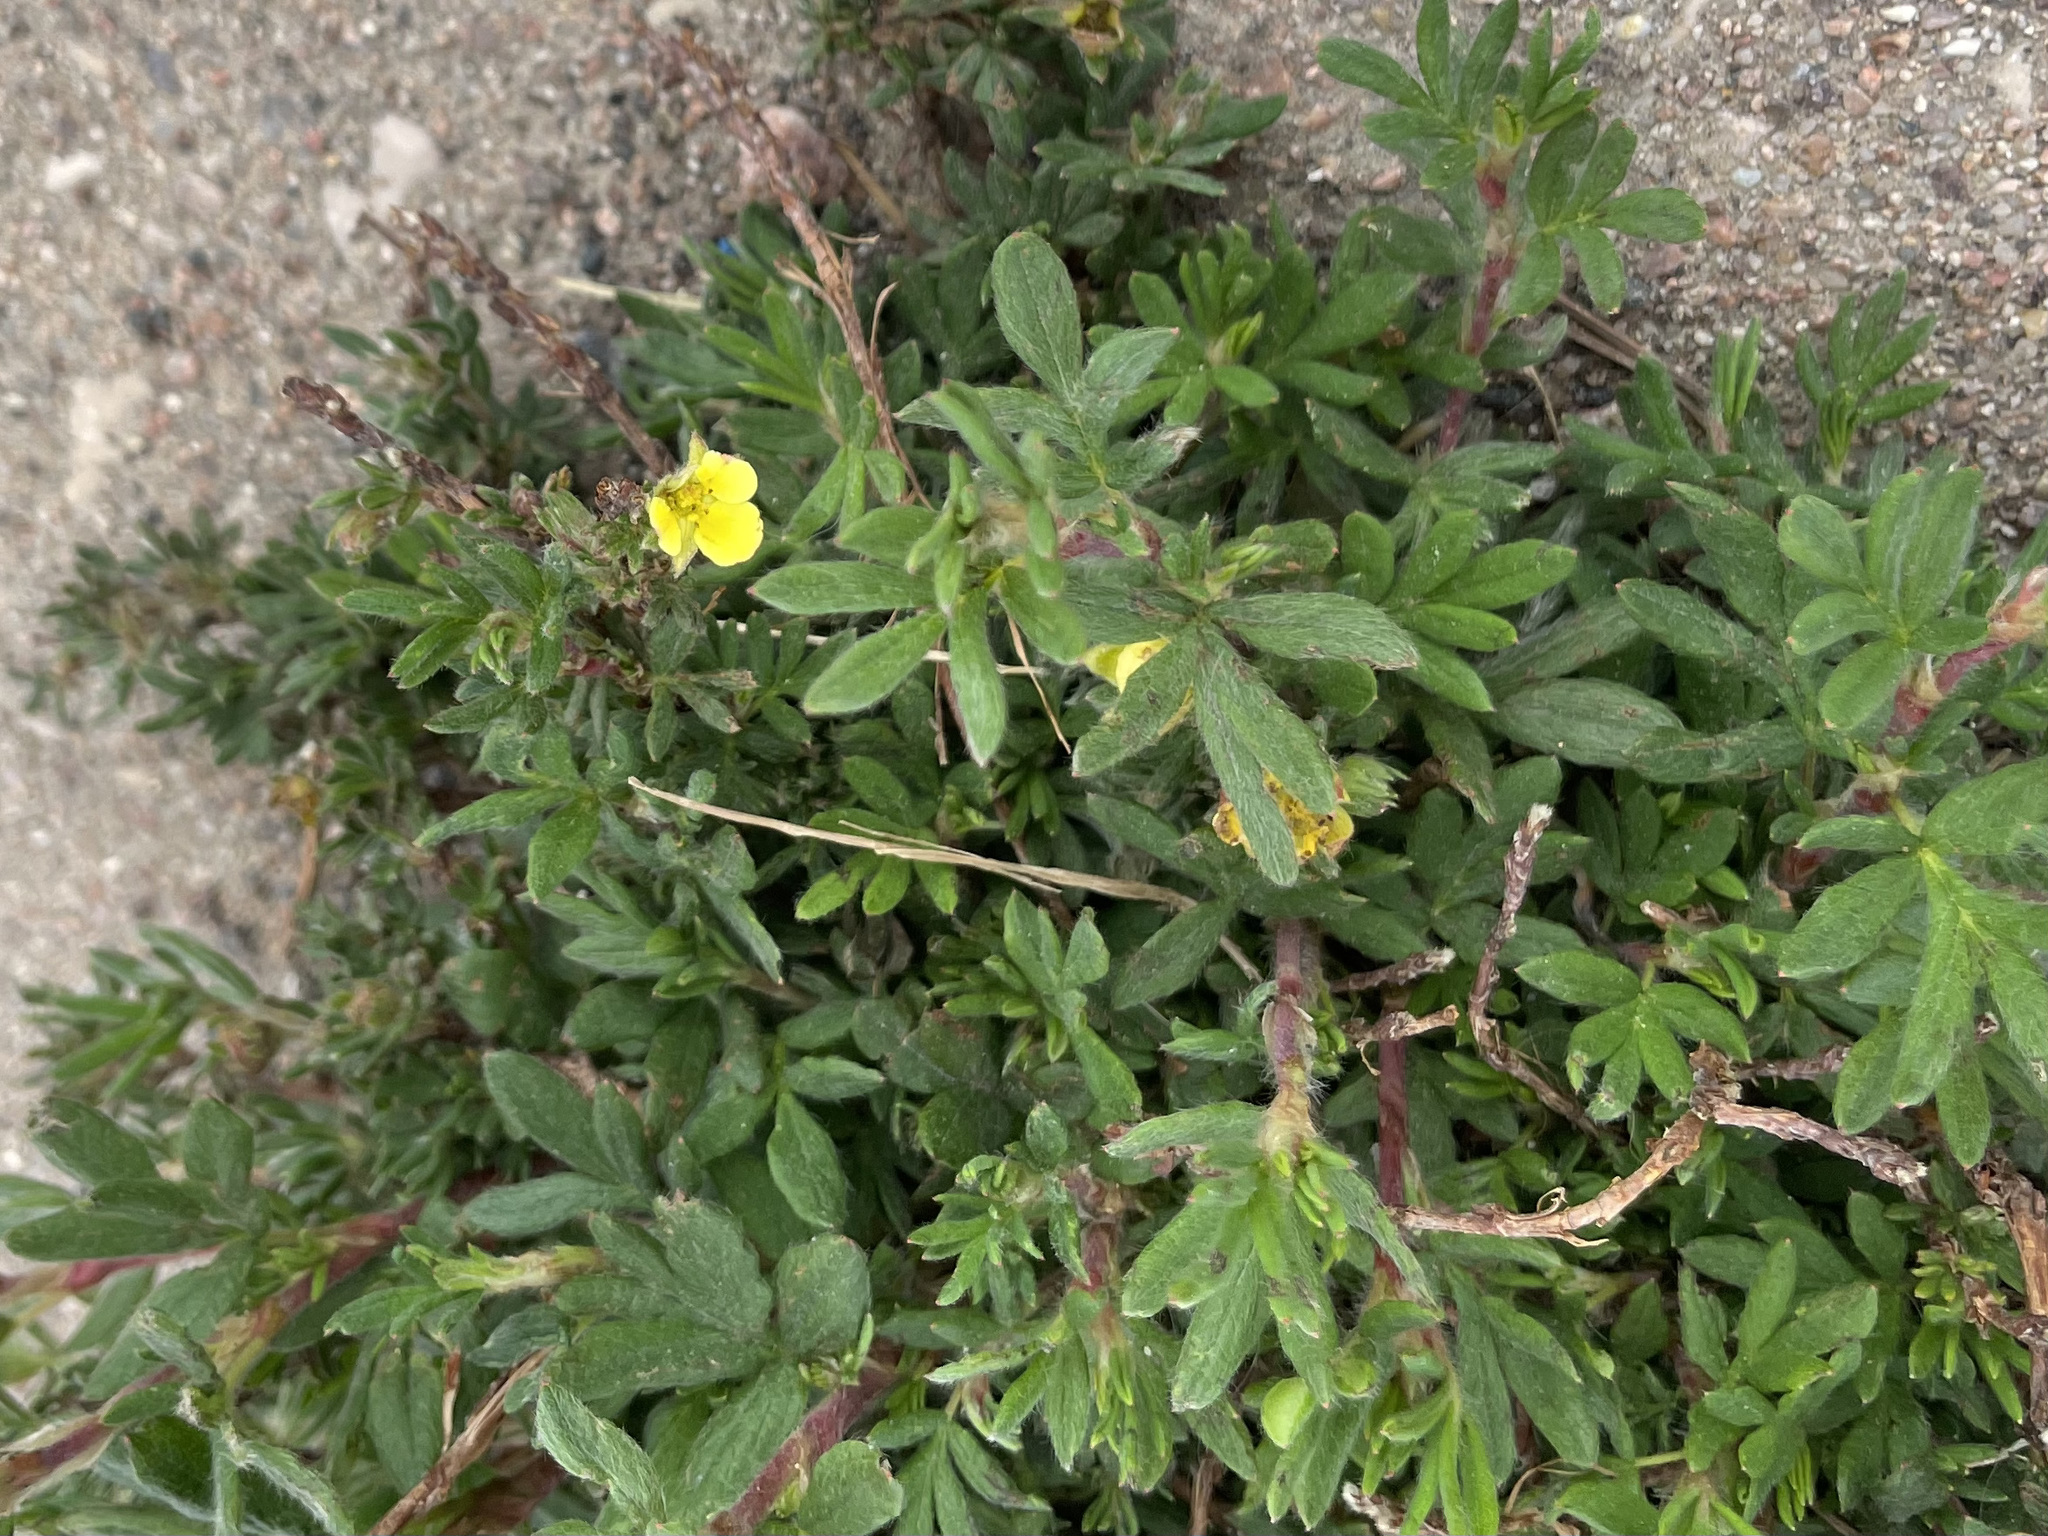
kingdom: Plantae
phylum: Tracheophyta
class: Magnoliopsida
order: Rosales
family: Rosaceae
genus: Dasiphora
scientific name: Dasiphora fruticosa
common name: Shrubby cinquefoil
